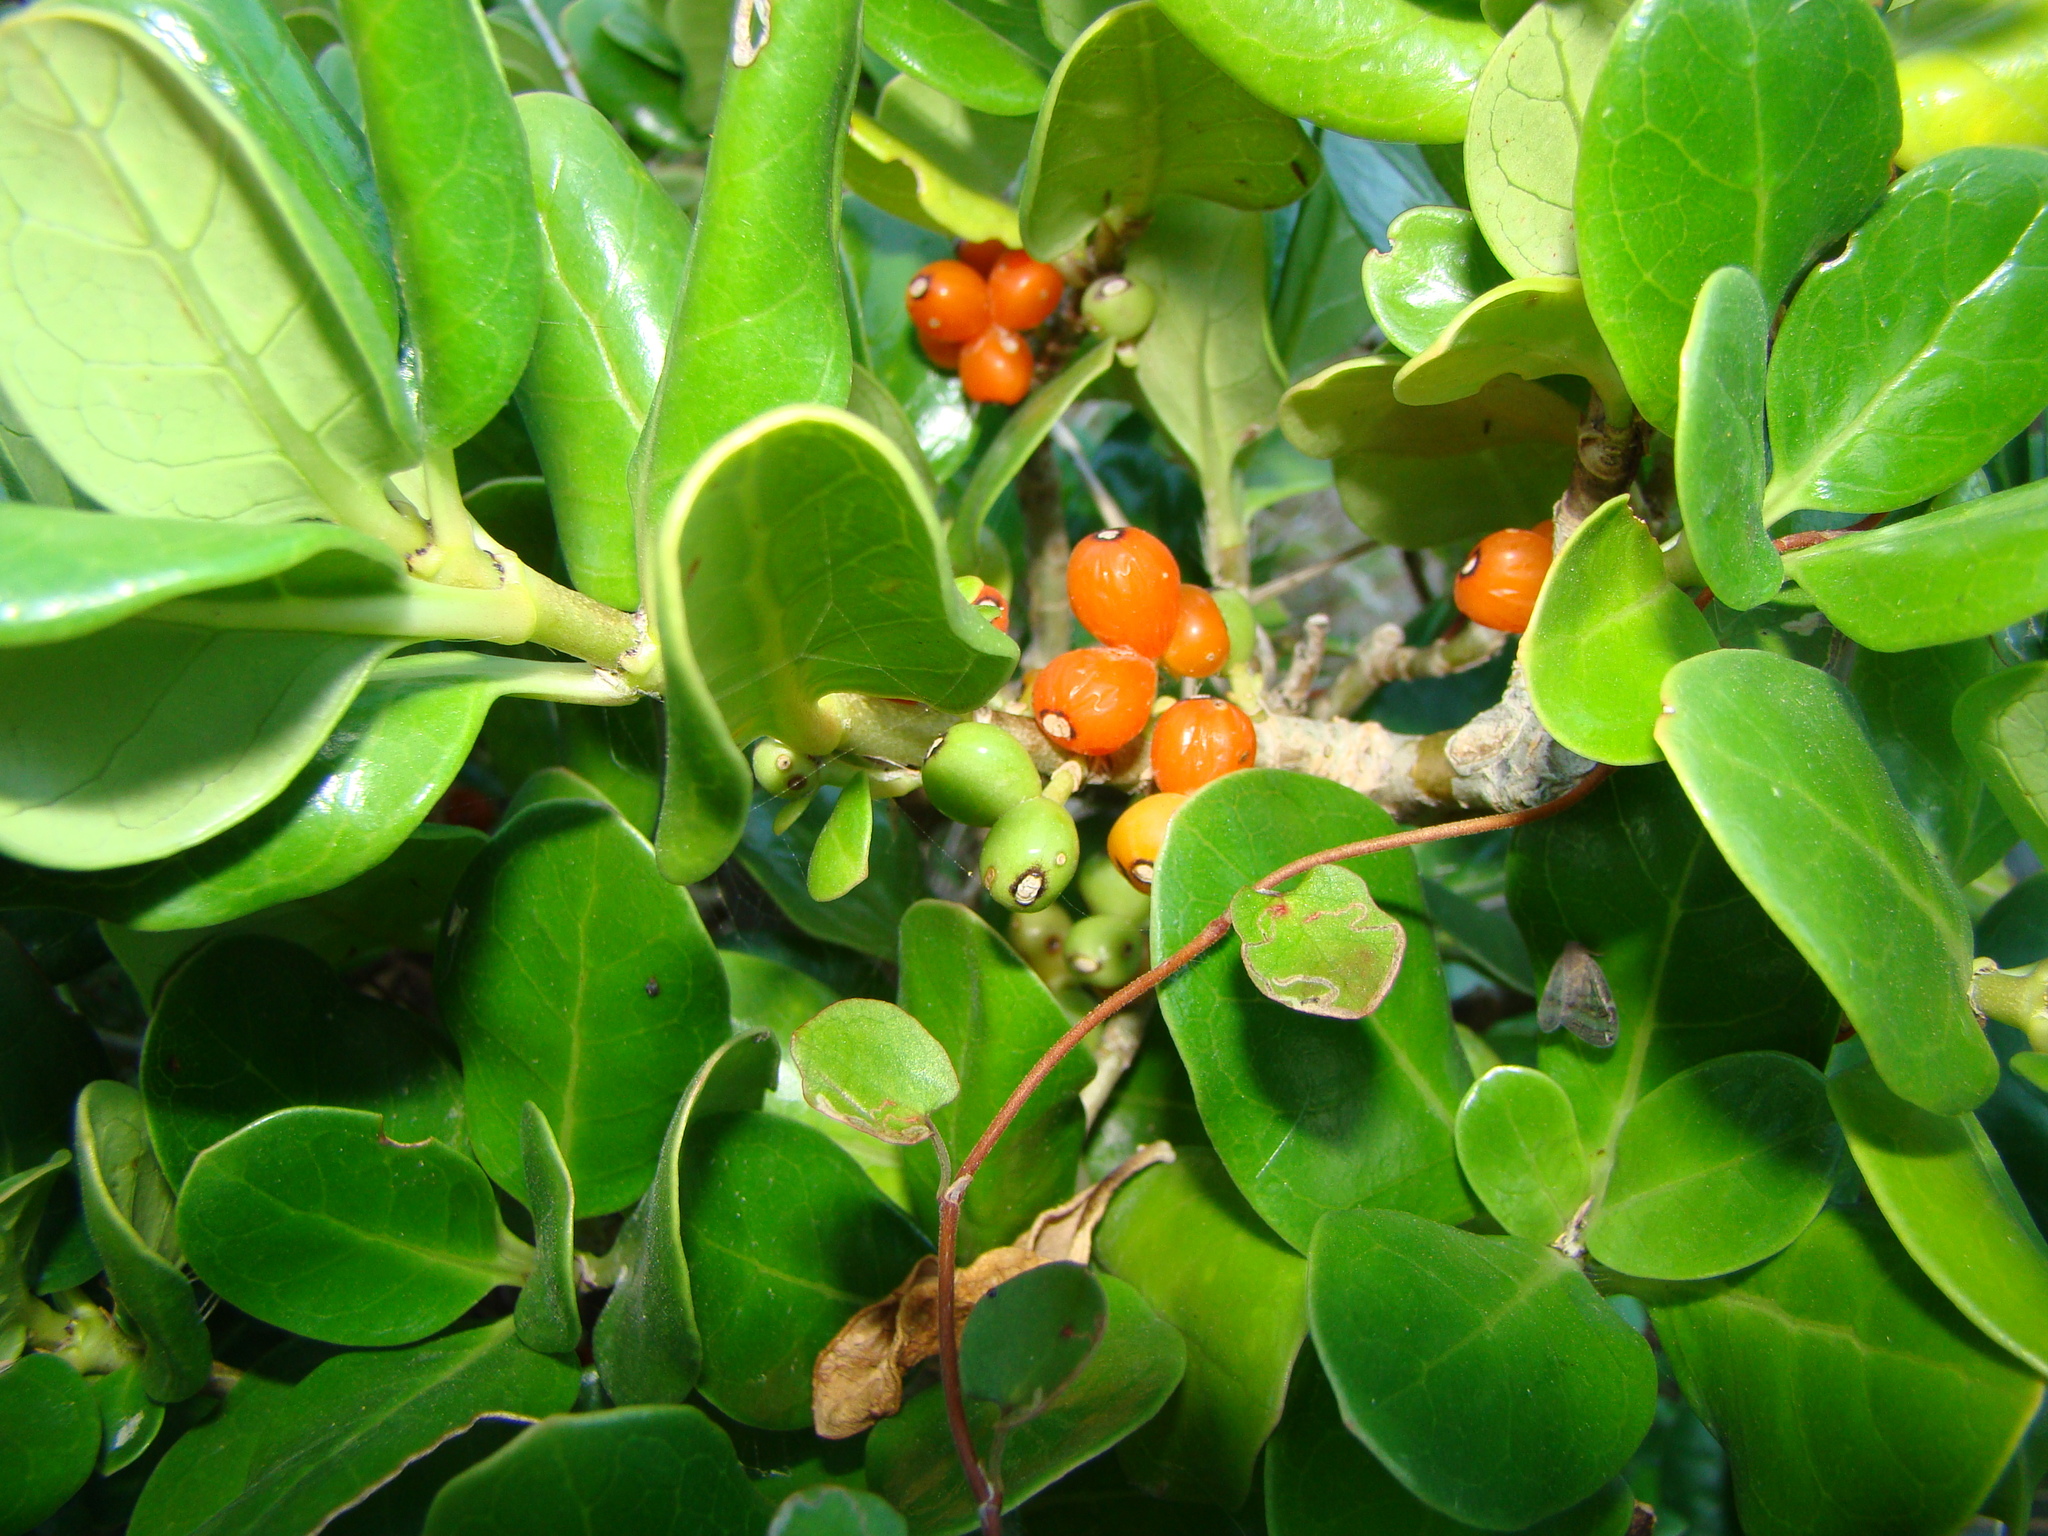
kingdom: Plantae
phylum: Tracheophyta
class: Magnoliopsida
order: Gentianales
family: Rubiaceae
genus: Coprosma
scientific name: Coprosma repens
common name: Tree bedstraw
